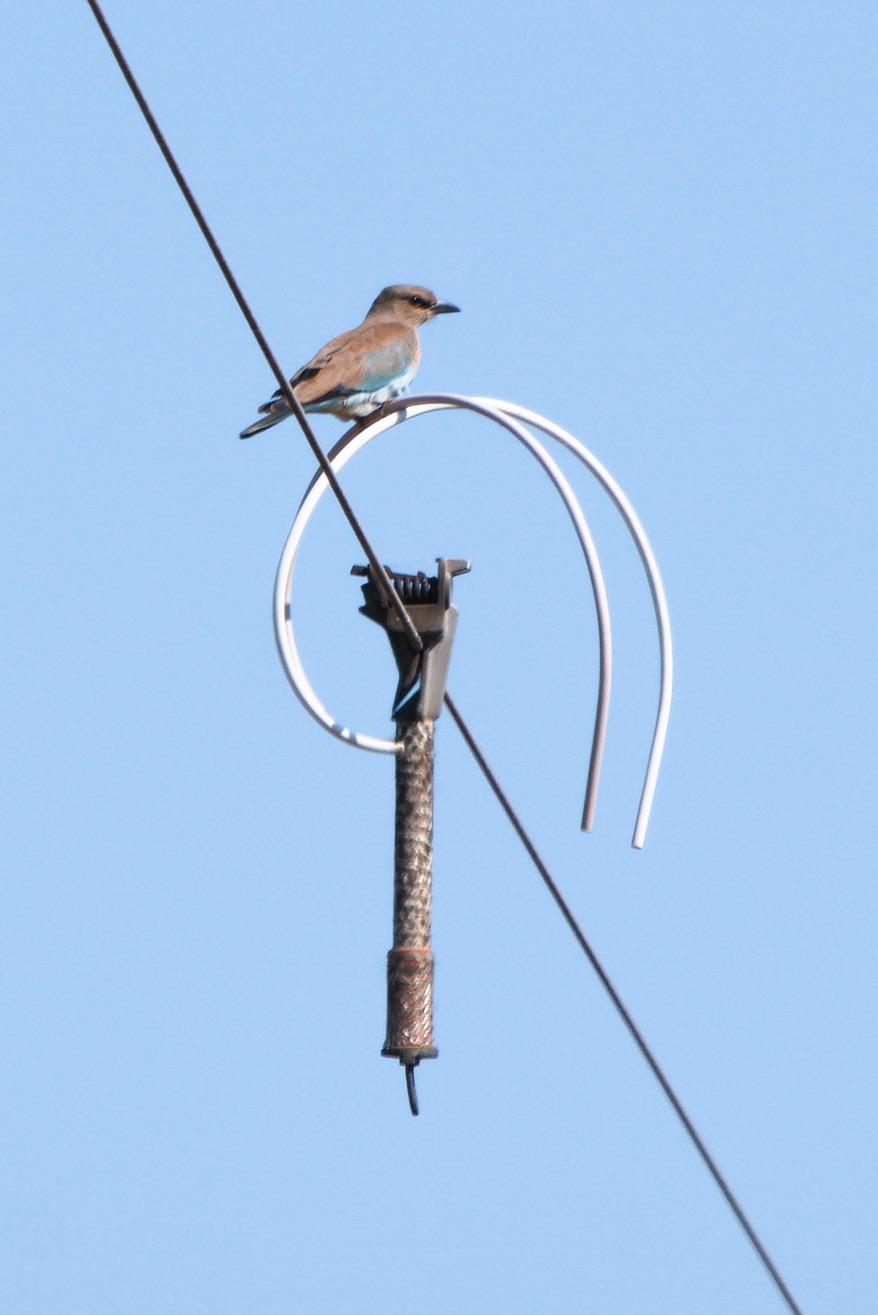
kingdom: Animalia
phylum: Chordata
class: Aves
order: Coraciiformes
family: Coraciidae
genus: Coracias
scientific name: Coracias garrulus
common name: European roller
